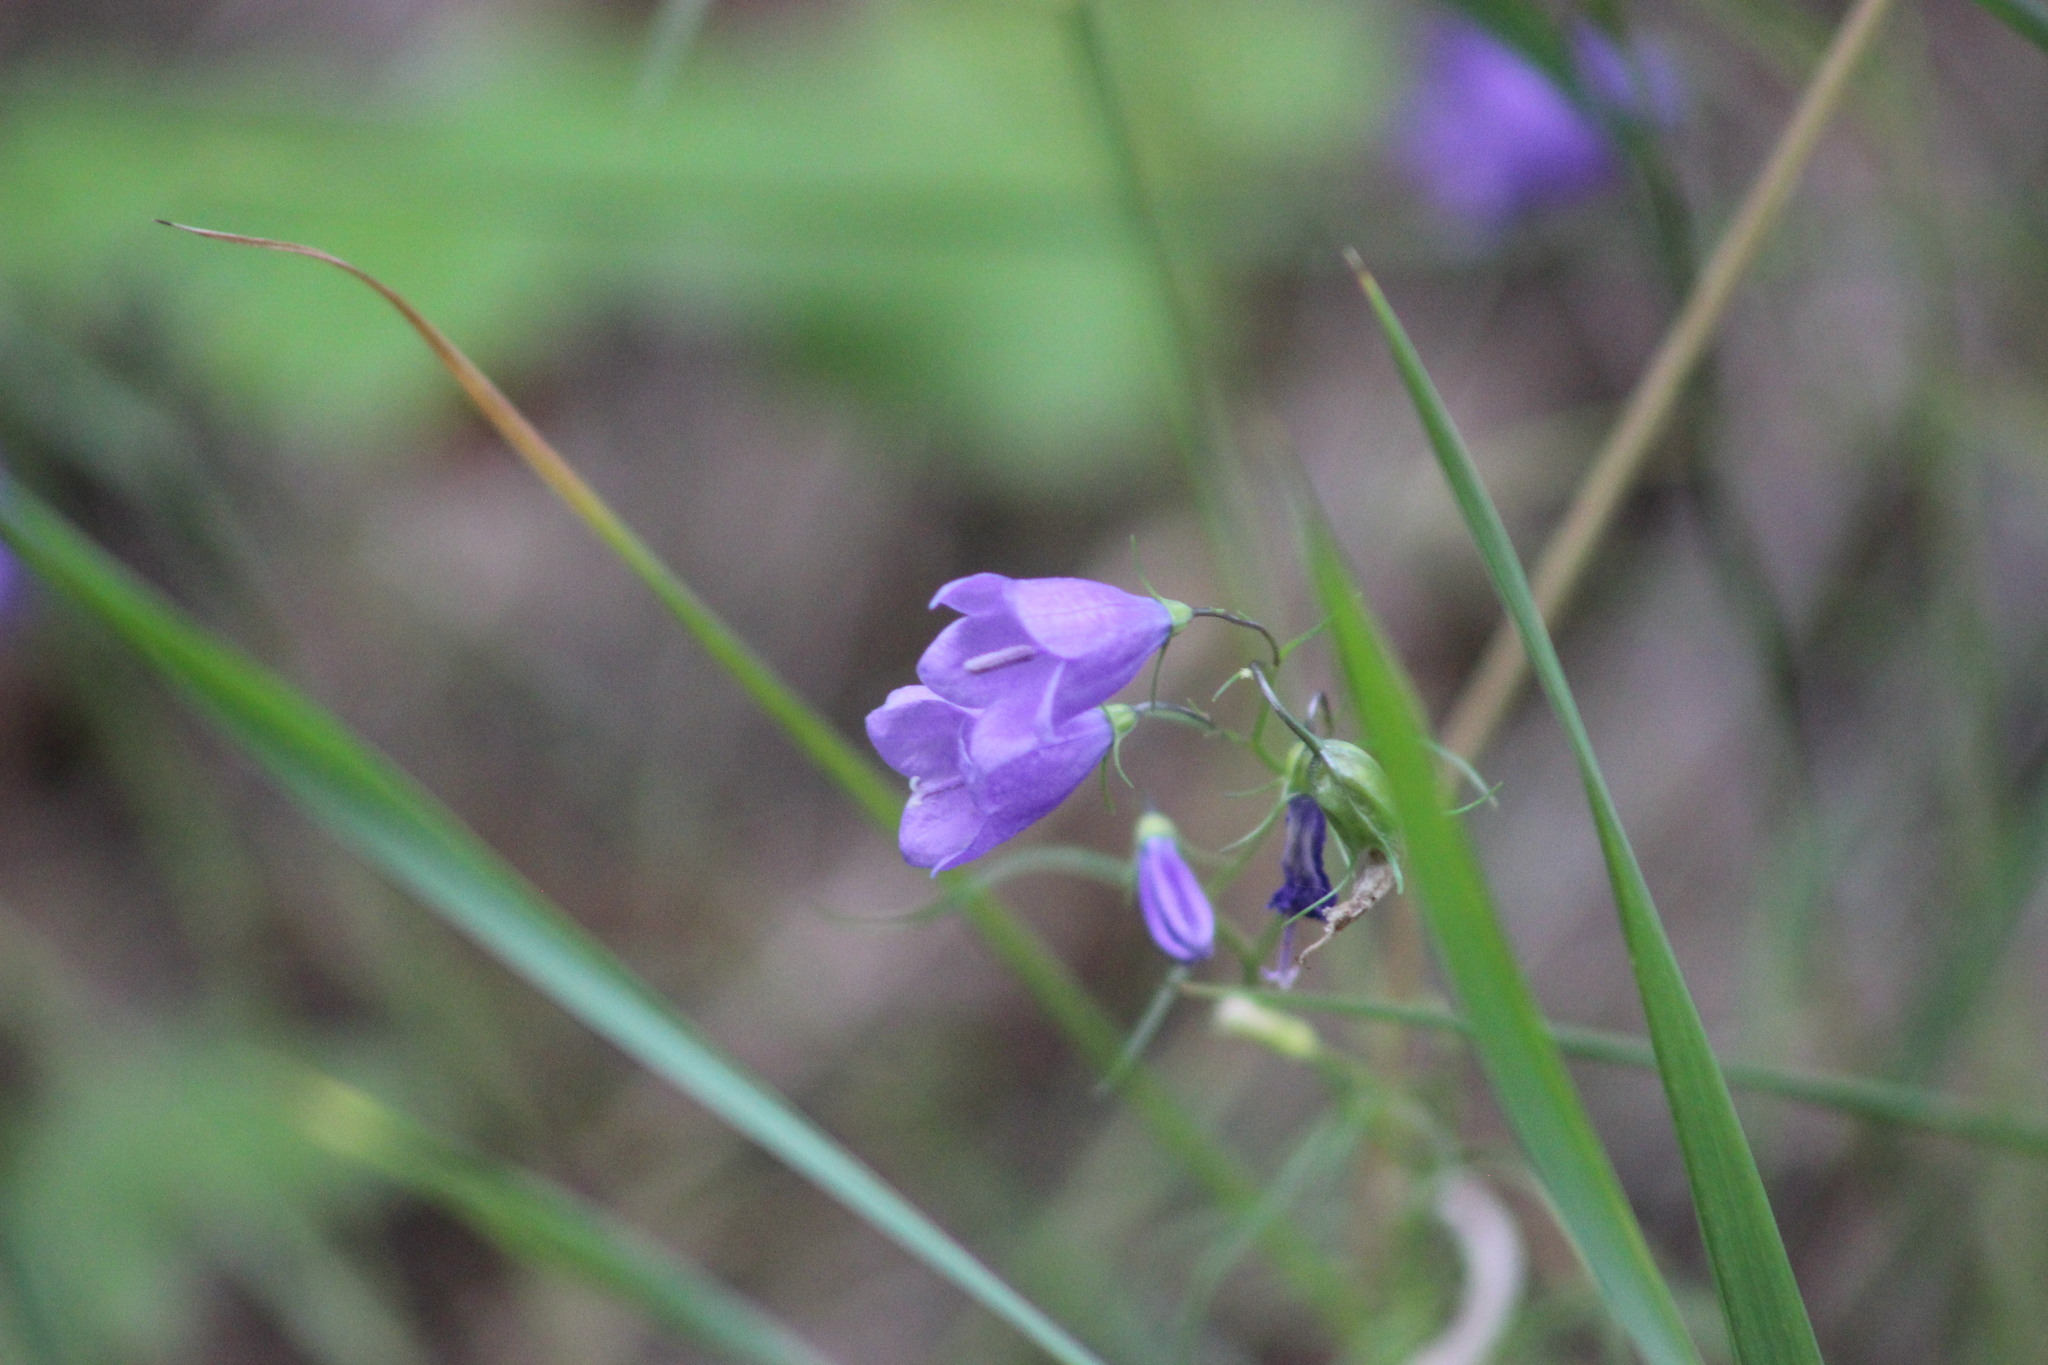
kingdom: Plantae
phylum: Tracheophyta
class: Magnoliopsida
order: Asterales
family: Campanulaceae
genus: Campanula
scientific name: Campanula rotundifolia
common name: Harebell
